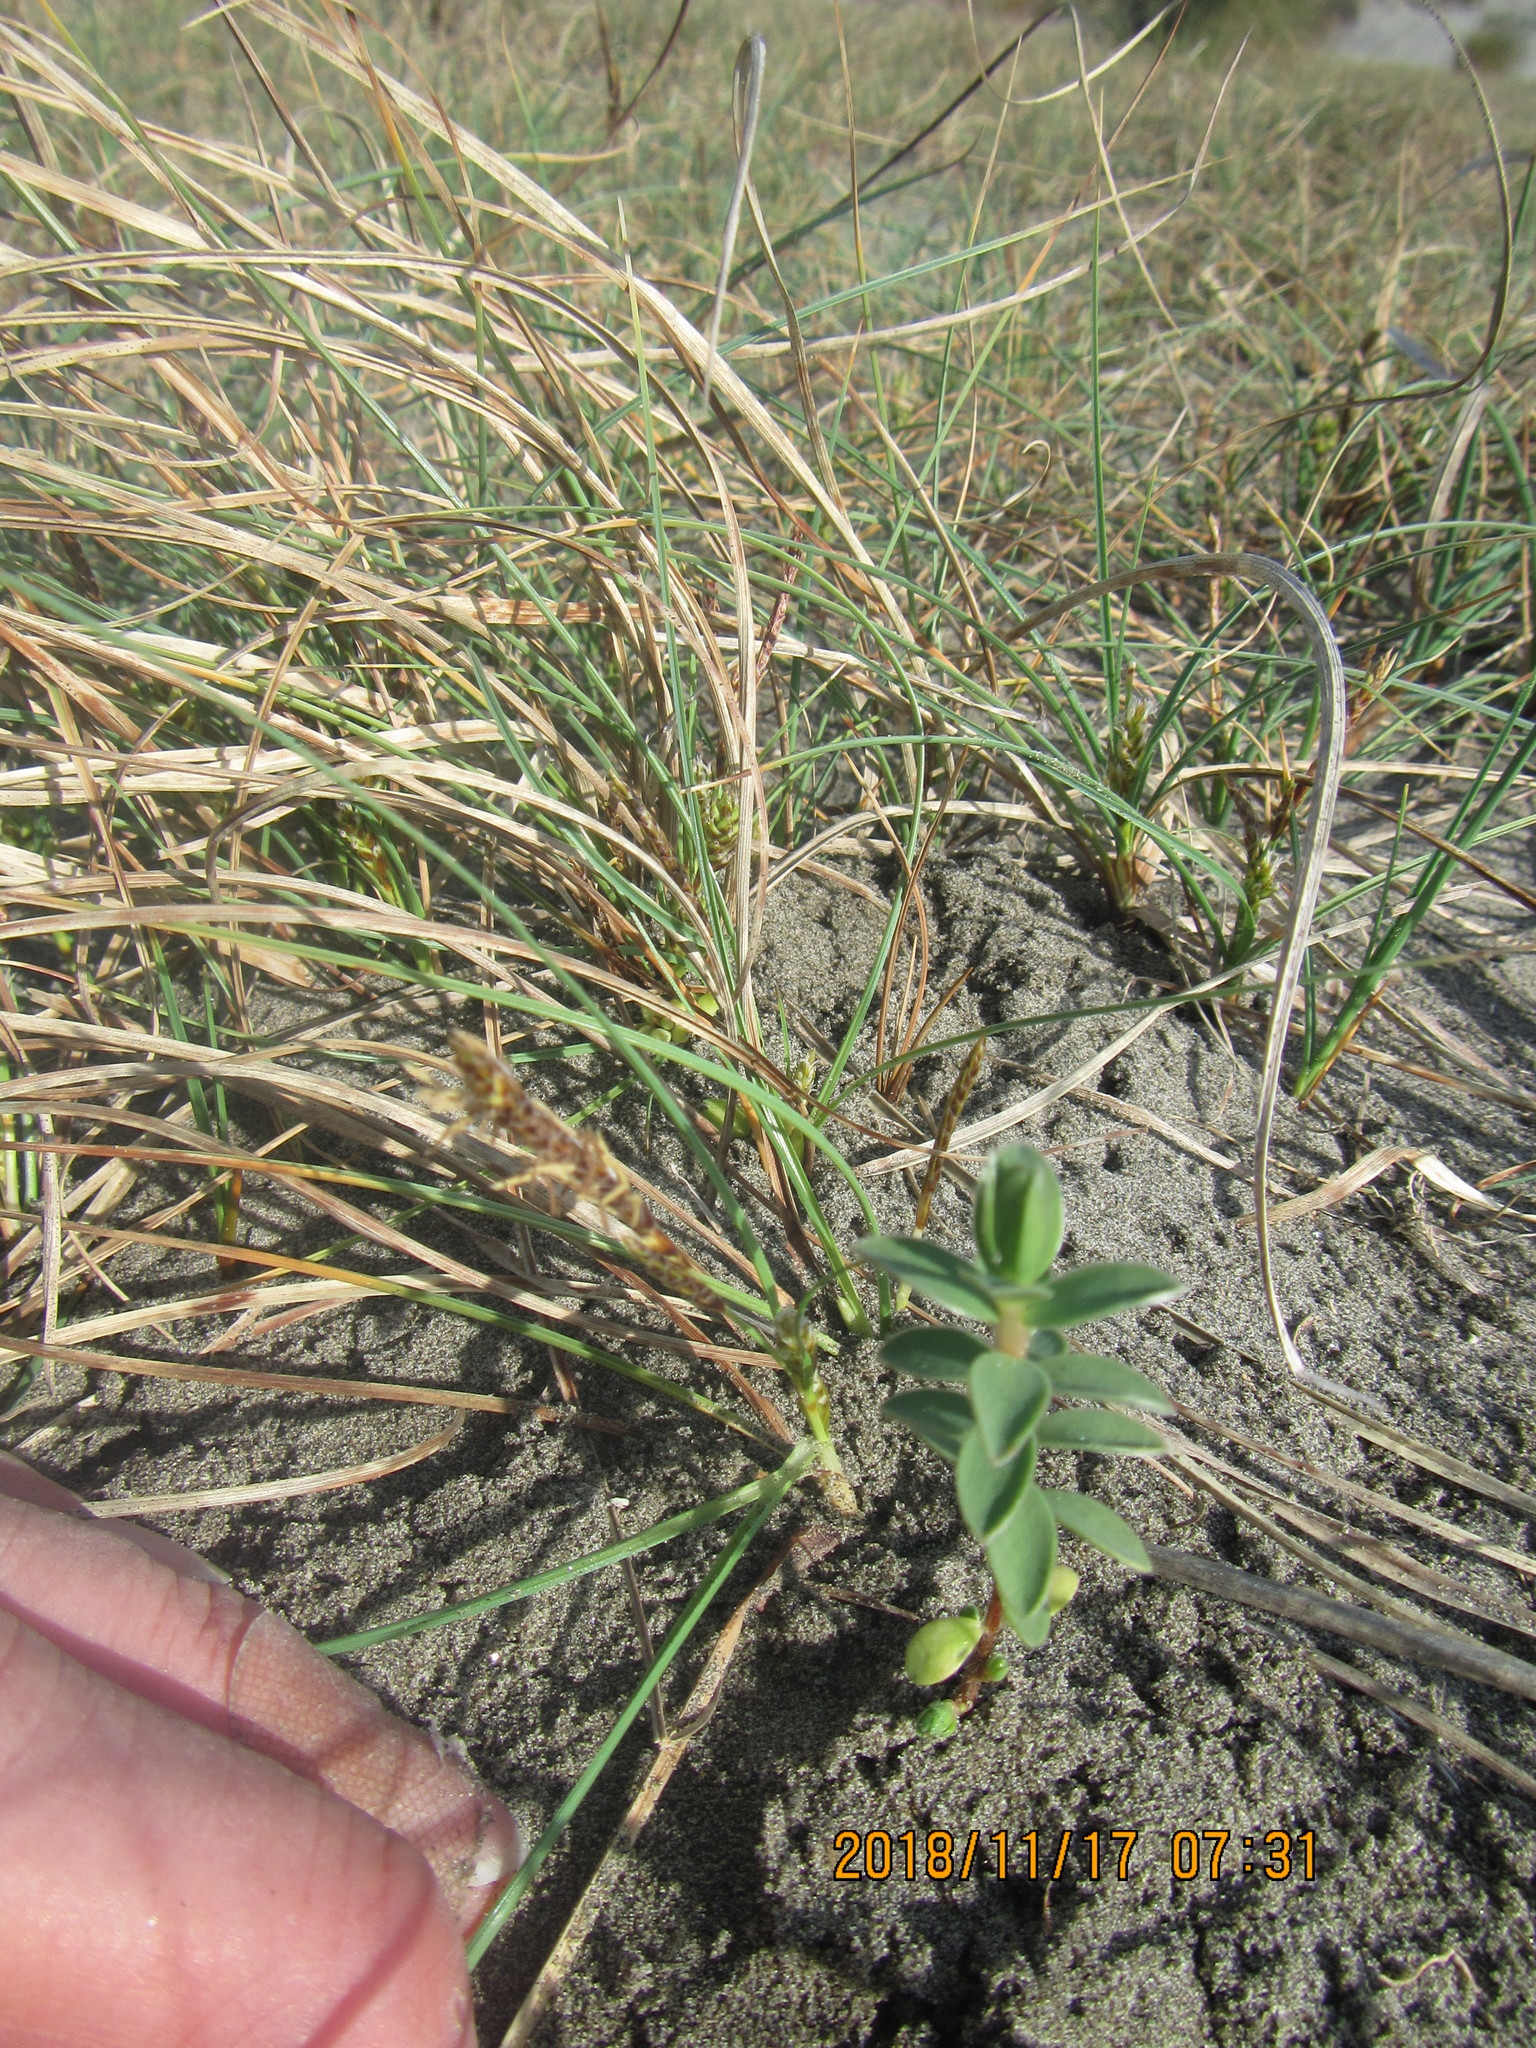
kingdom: Plantae
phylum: Tracheophyta
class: Magnoliopsida
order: Malvales
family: Thymelaeaceae
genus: Pimelea
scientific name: Pimelea villosa
